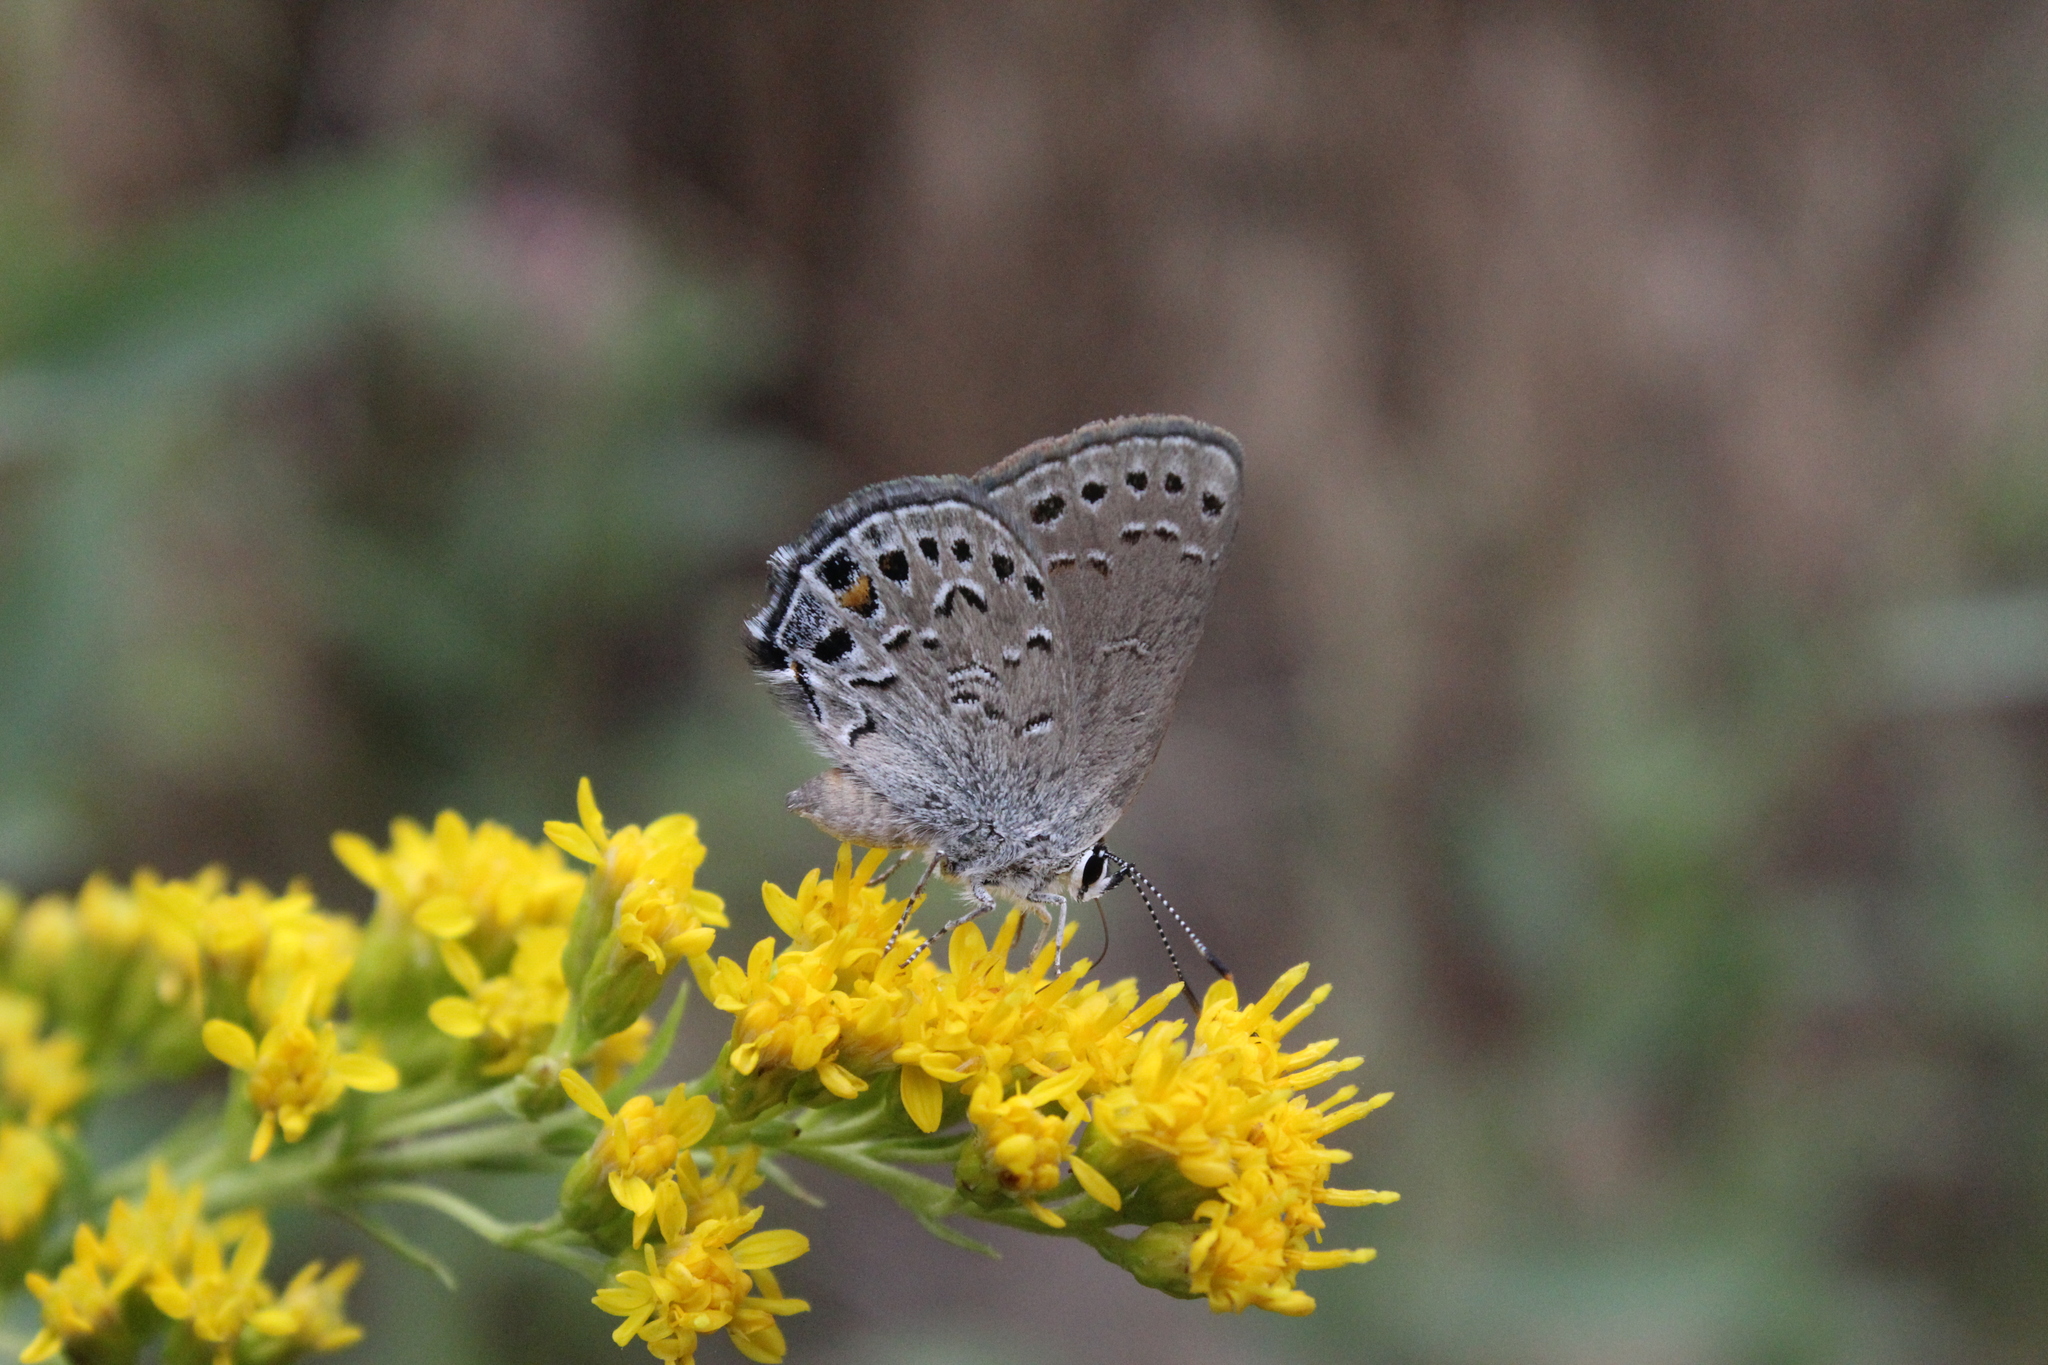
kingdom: Animalia
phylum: Arthropoda
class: Insecta
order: Lepidoptera
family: Lycaenidae
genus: Satyrium
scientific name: Satyrium behrii
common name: Behr's hairstreak
